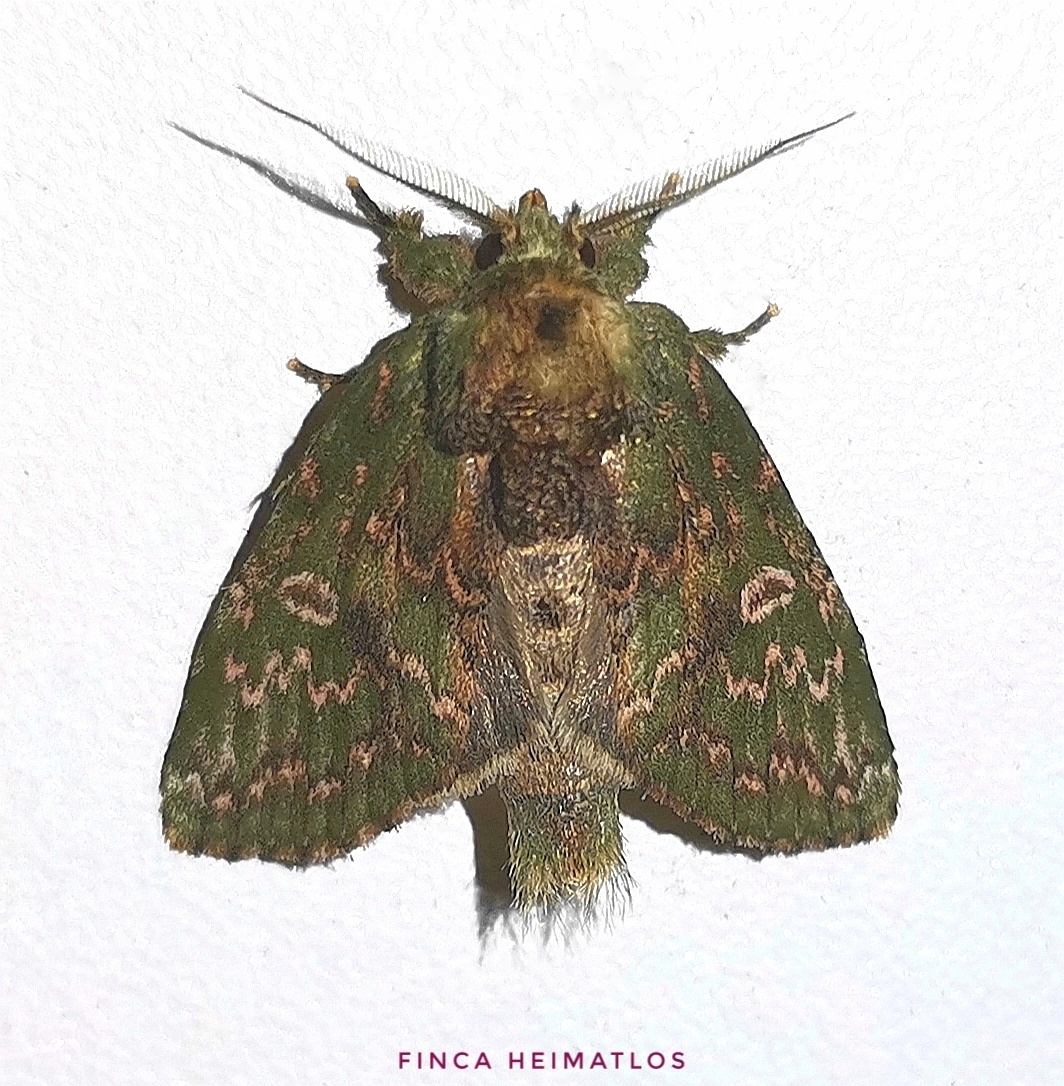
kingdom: Animalia
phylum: Arthropoda
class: Insecta
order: Lepidoptera
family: Notodontidae
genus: Disphragis
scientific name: Disphragis baracoana
